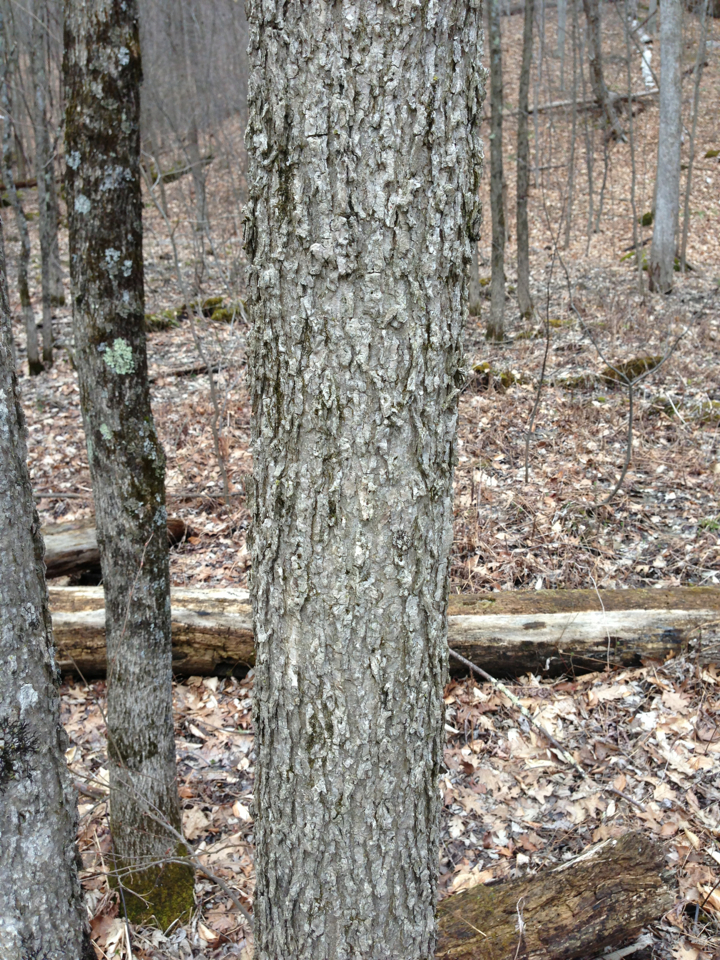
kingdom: Plantae
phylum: Tracheophyta
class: Magnoliopsida
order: Lamiales
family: Oleaceae
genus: Fraxinus
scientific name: Fraxinus nigra
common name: Black ash
